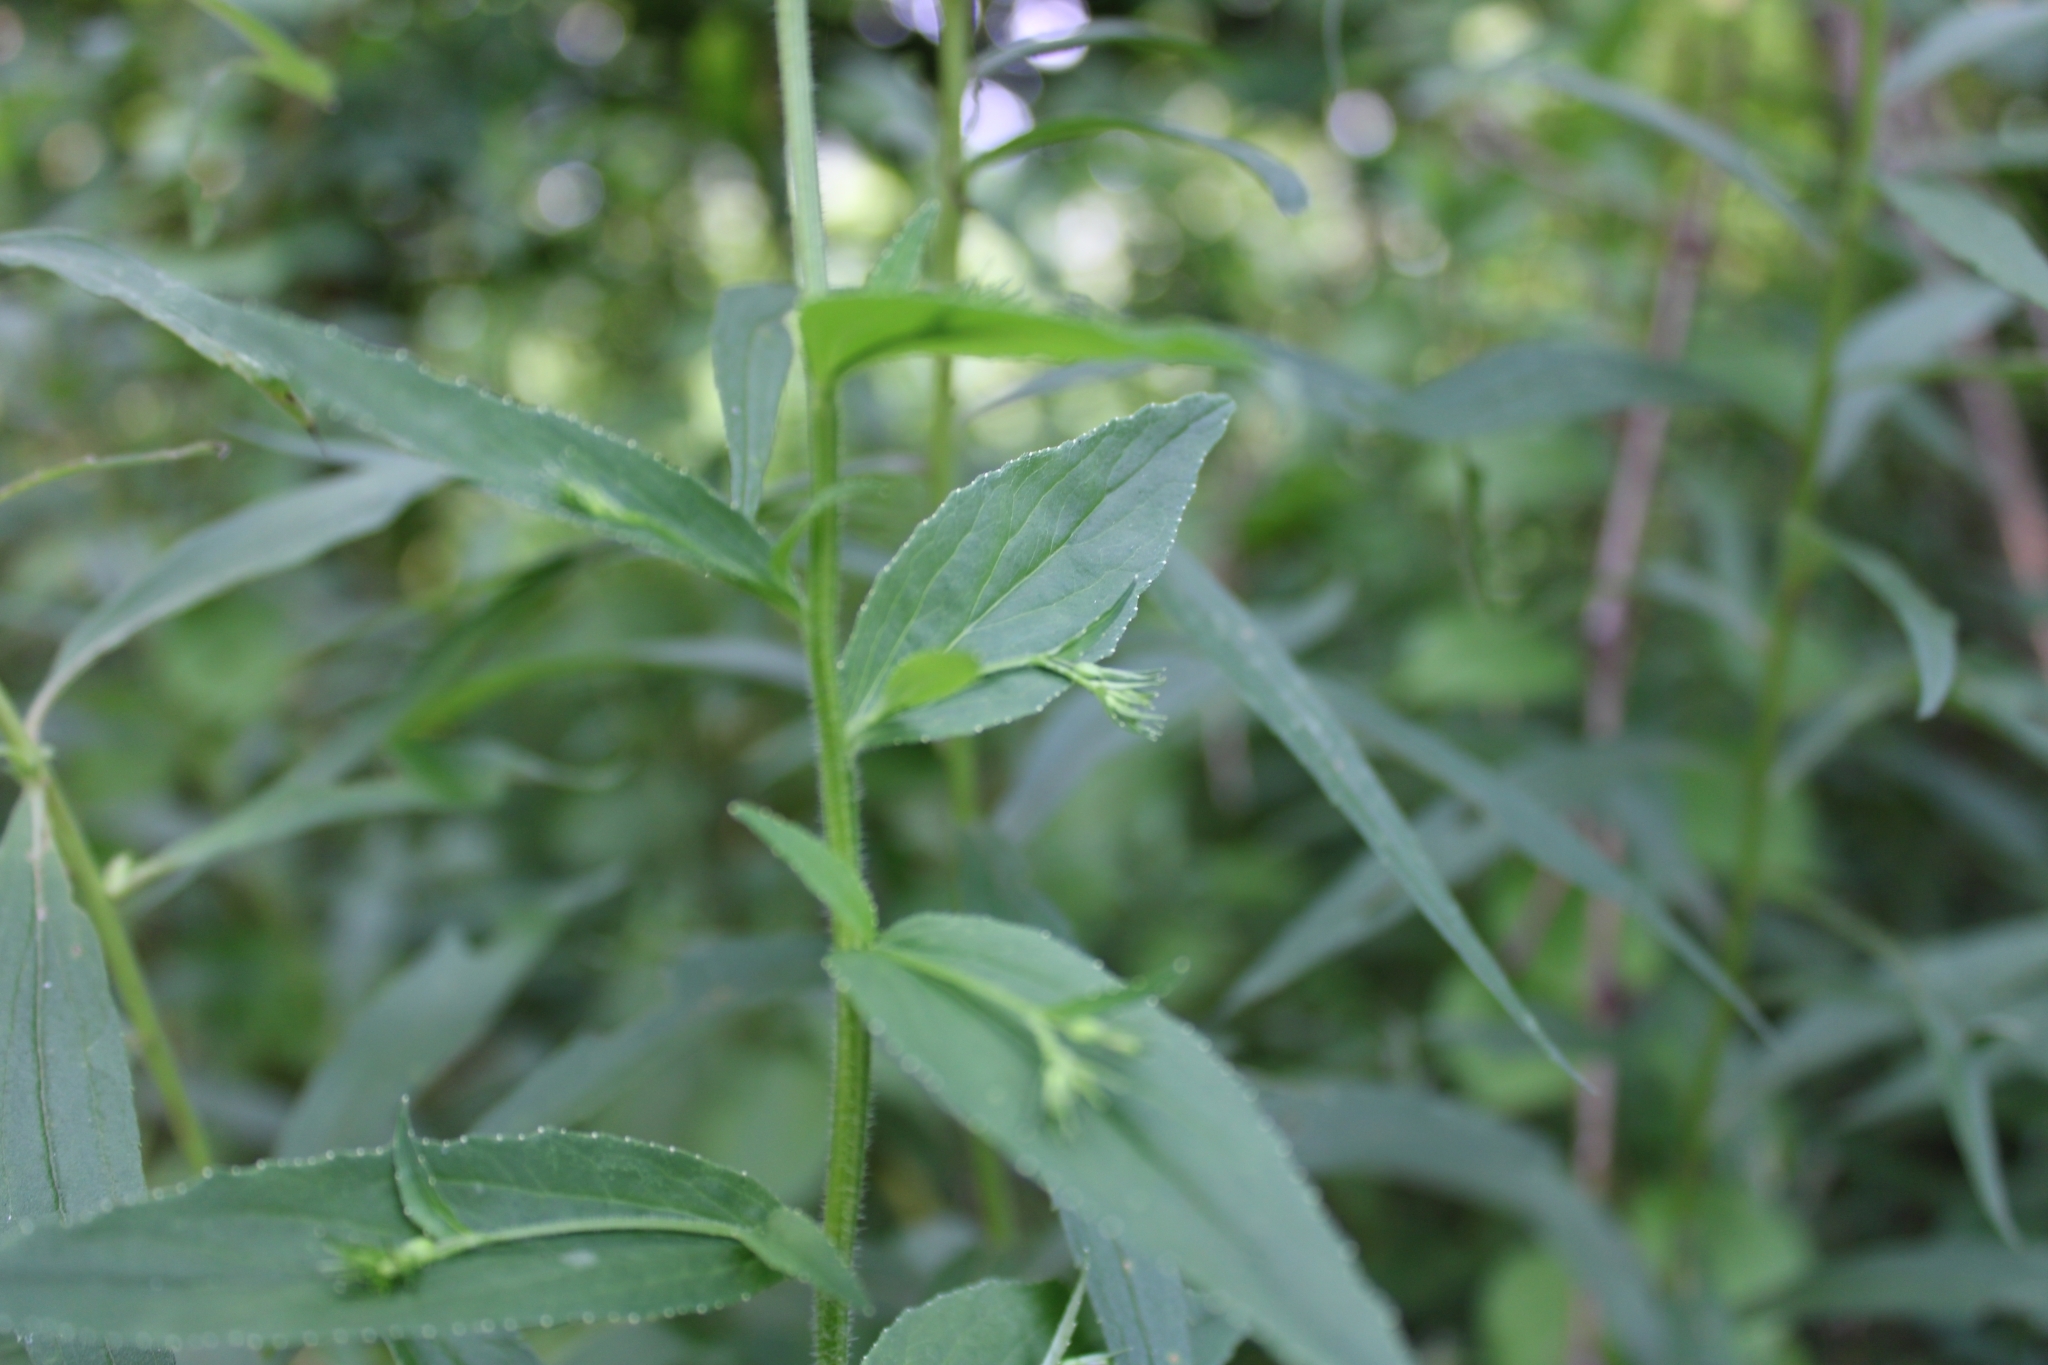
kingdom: Plantae
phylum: Tracheophyta
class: Magnoliopsida
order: Asterales
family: Campanulaceae
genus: Lobelia
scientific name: Lobelia inflata
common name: Indian tobacco
